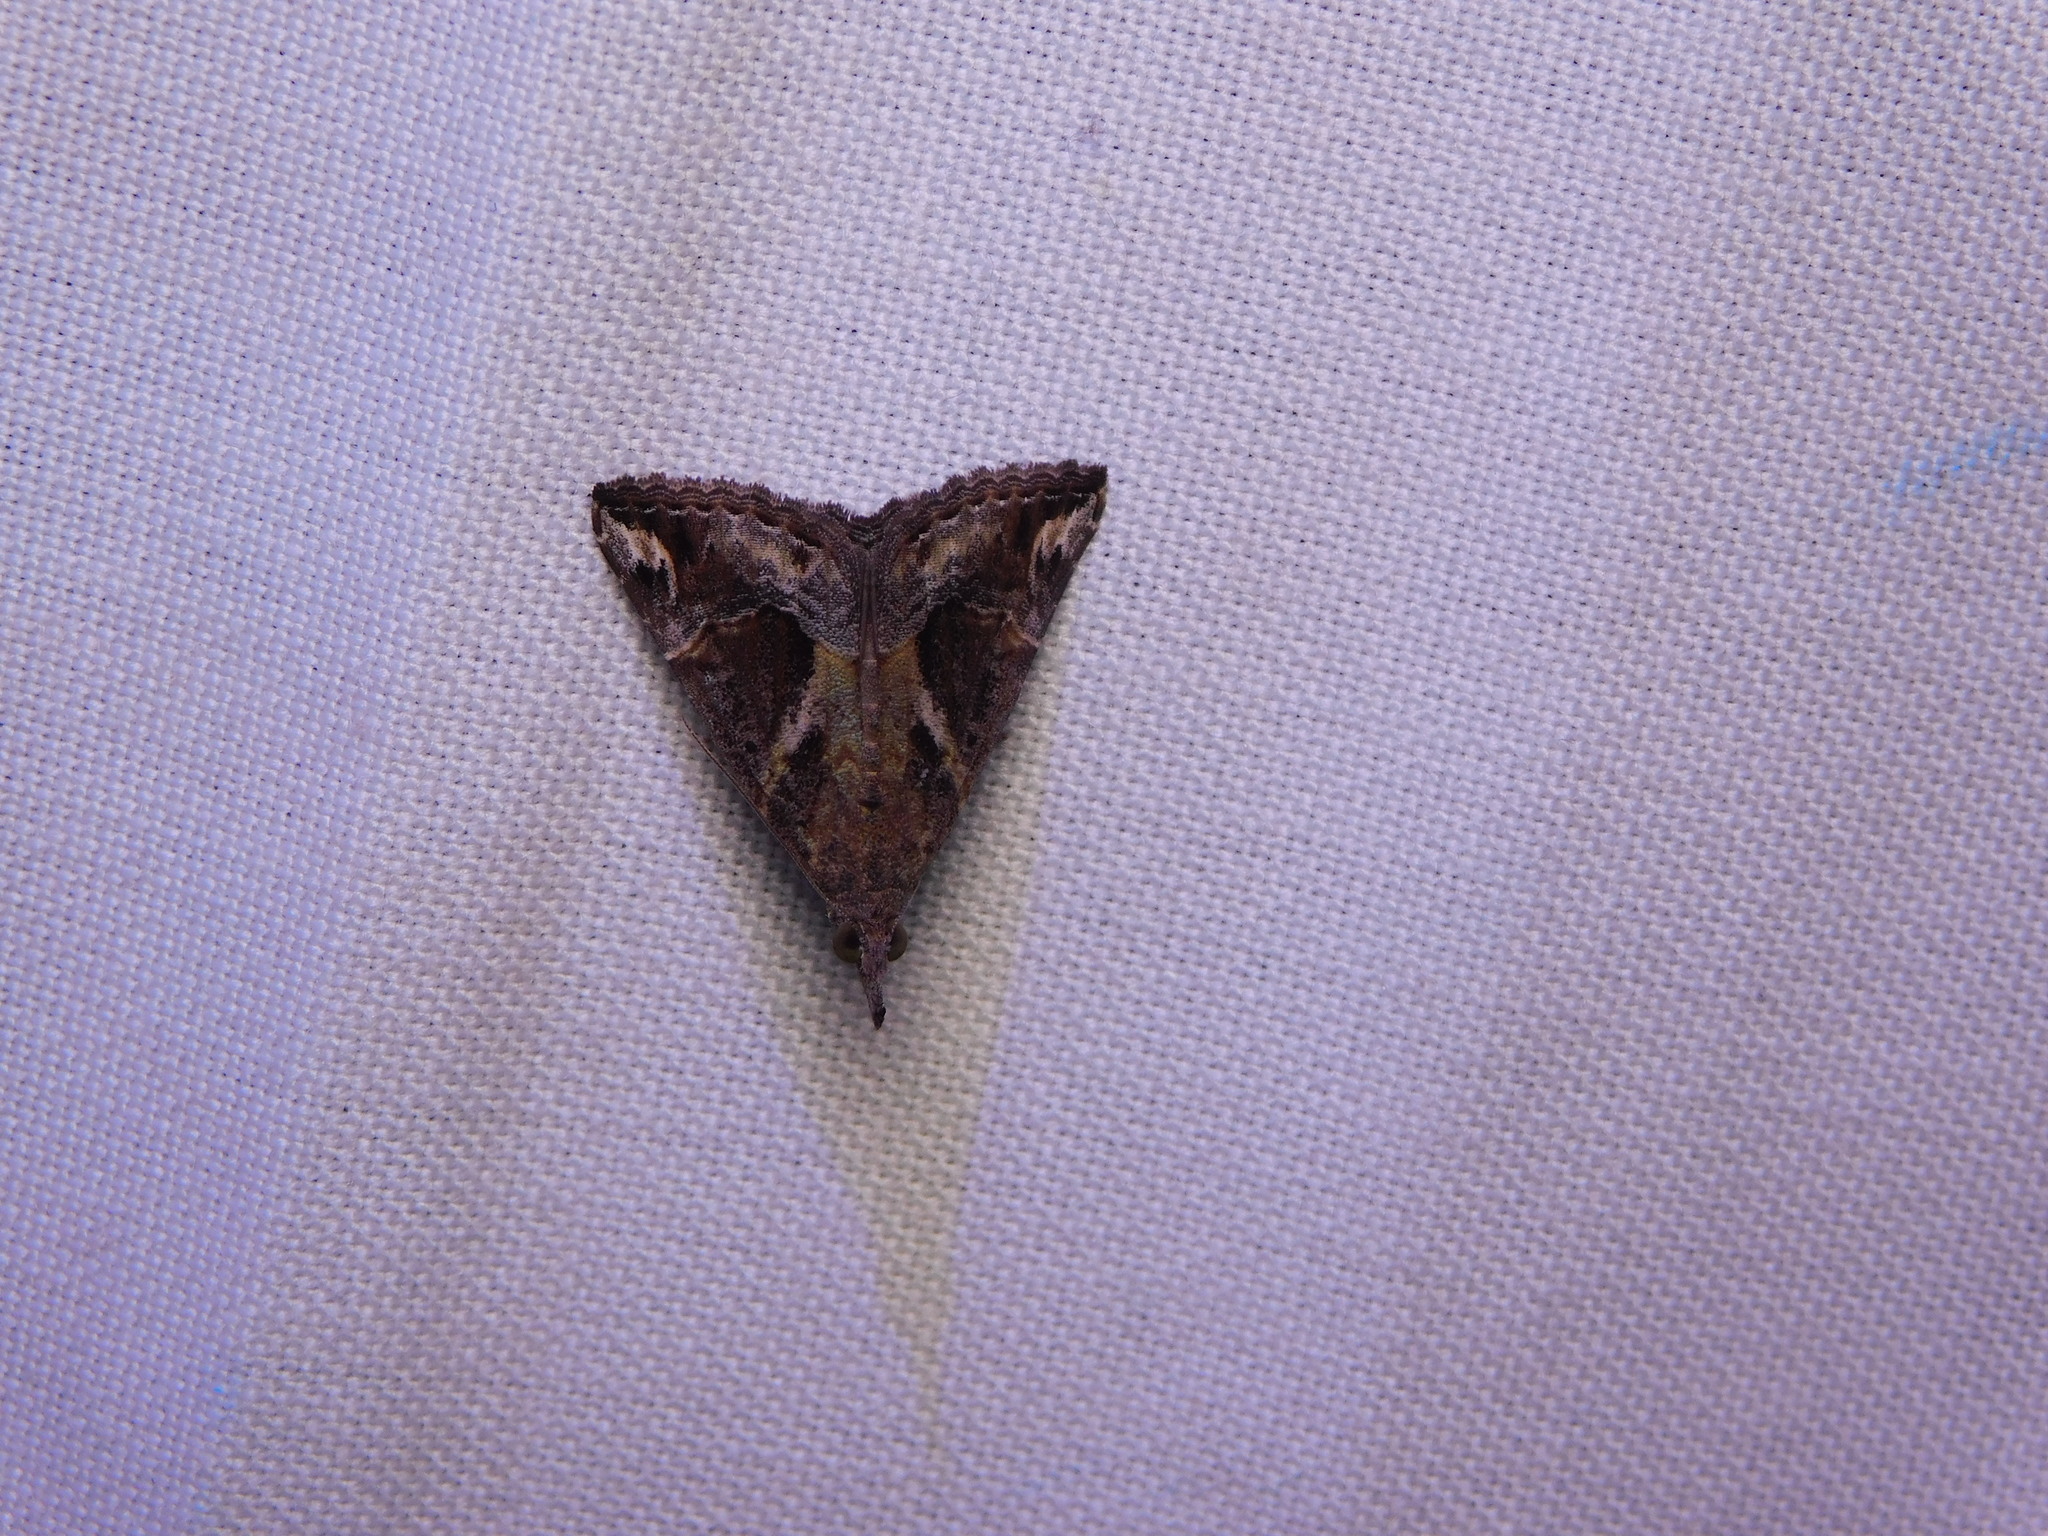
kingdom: Animalia
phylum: Arthropoda
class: Insecta
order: Lepidoptera
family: Erebidae
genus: Hypena
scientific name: Hypena commixtalis
